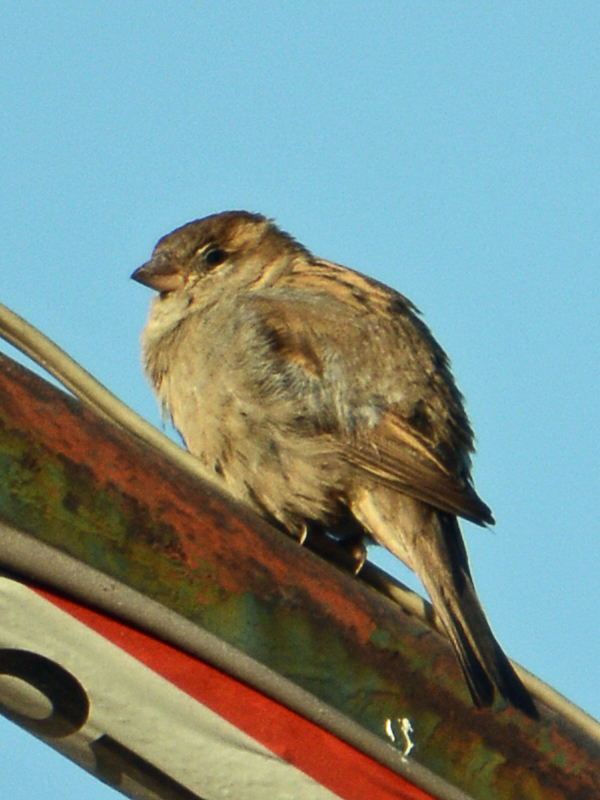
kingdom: Animalia
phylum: Chordata
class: Aves
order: Passeriformes
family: Passeridae
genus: Passer
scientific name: Passer domesticus
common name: House sparrow
